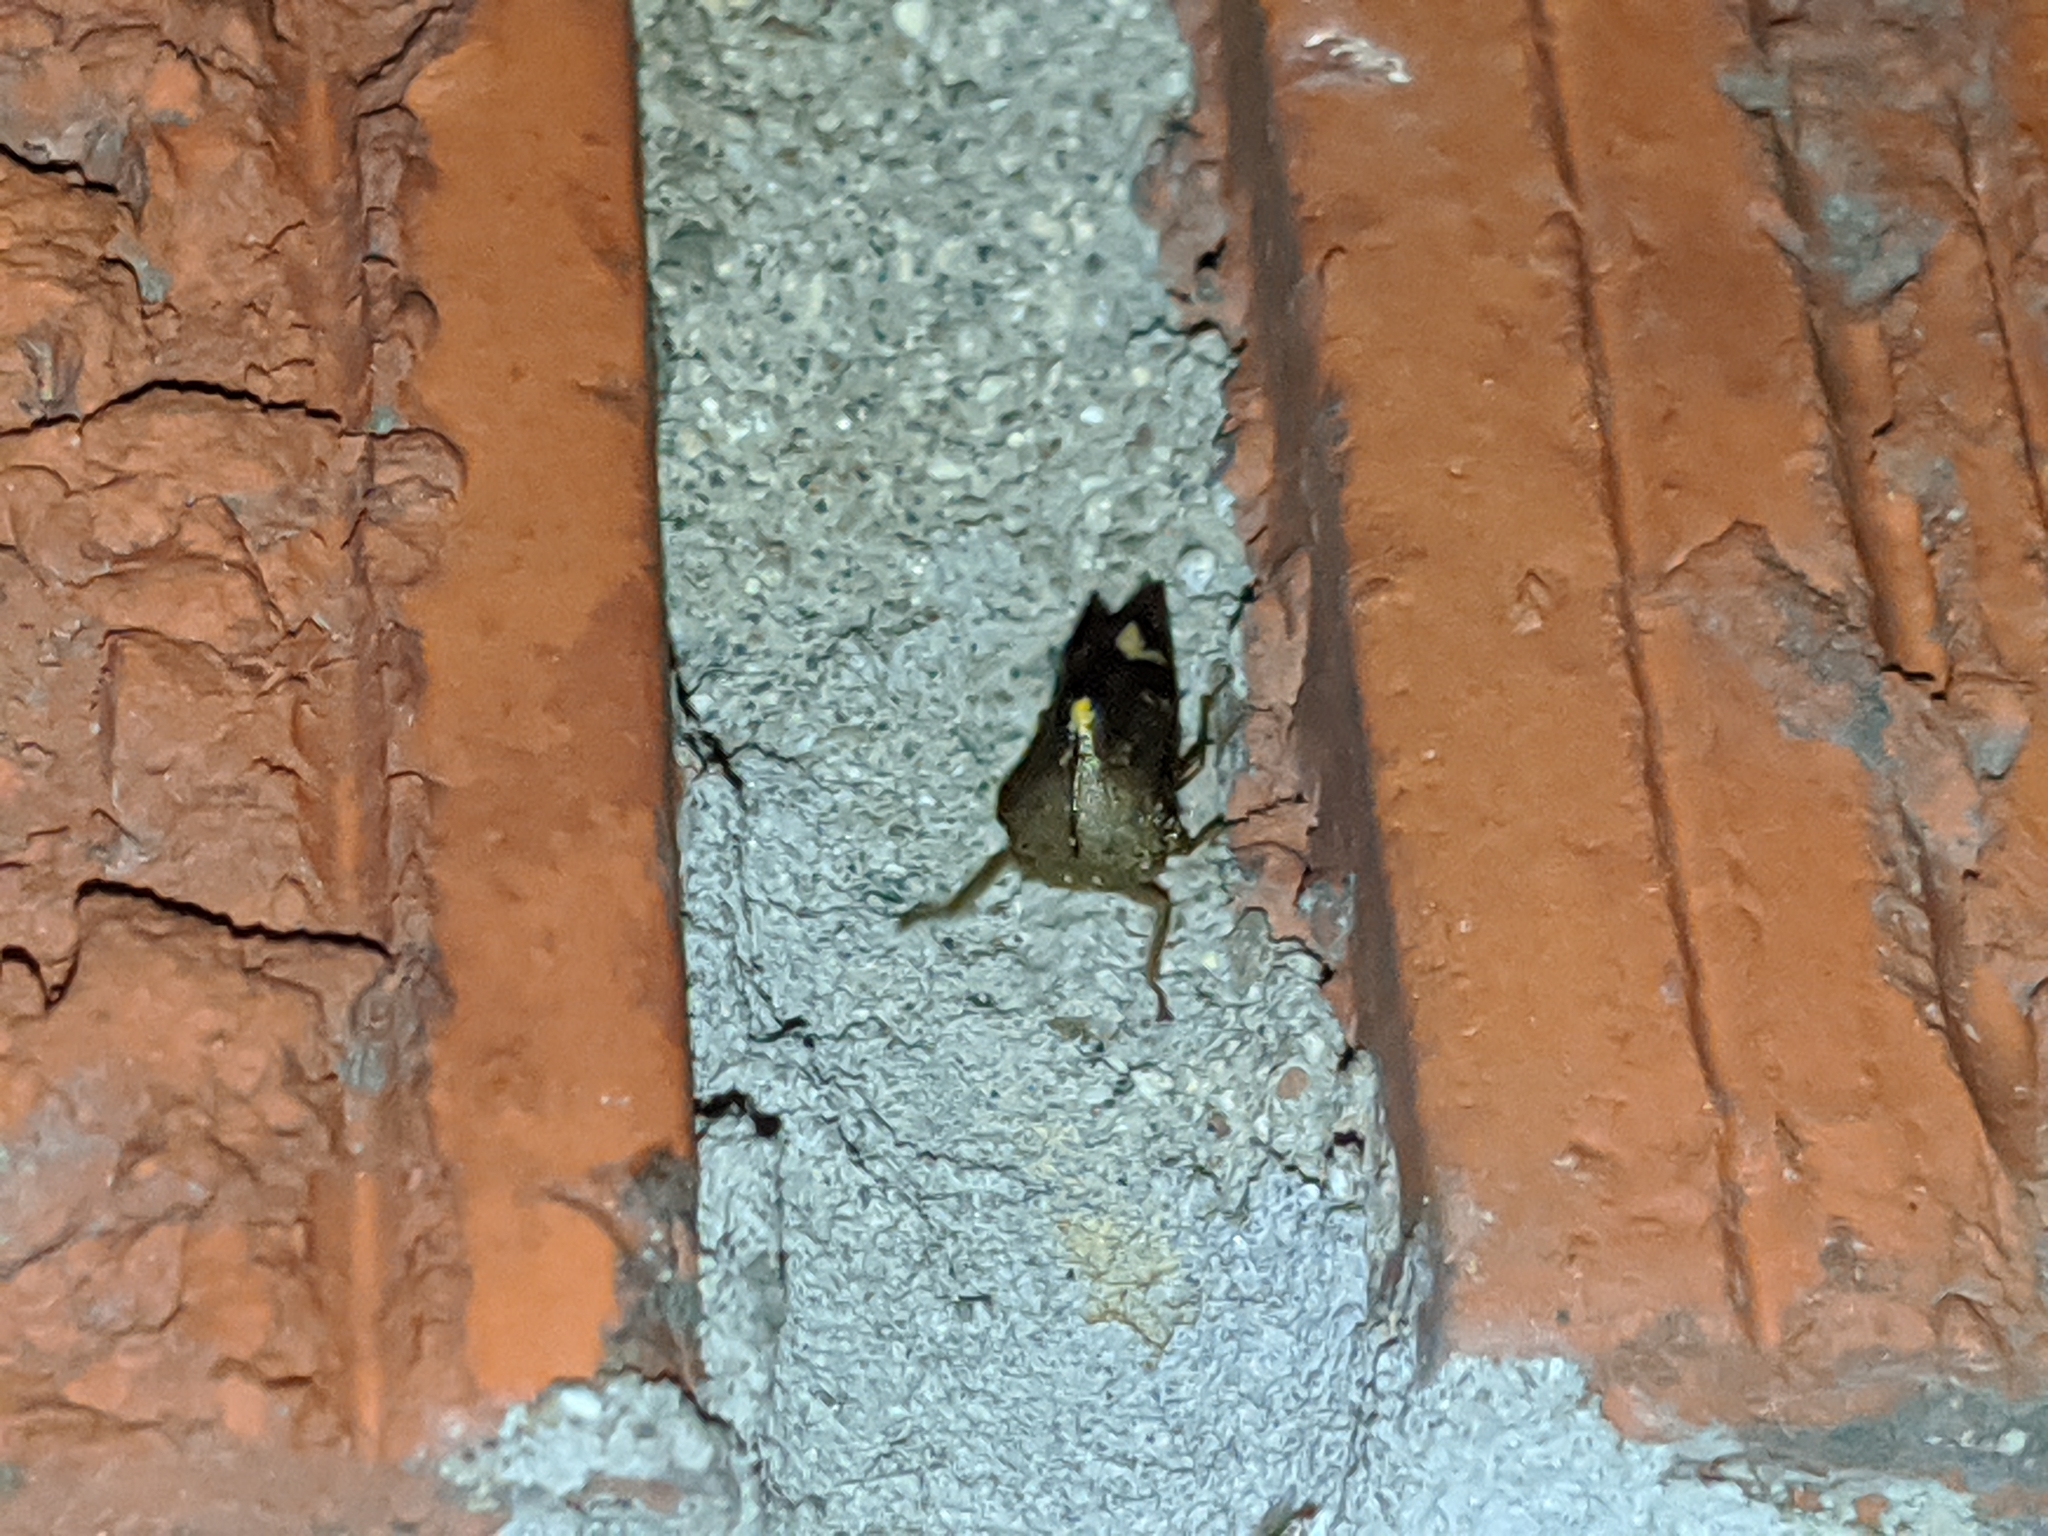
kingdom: Animalia
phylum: Arthropoda
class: Insecta
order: Hemiptera
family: Membracidae
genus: Telamona
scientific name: Telamona decorata
